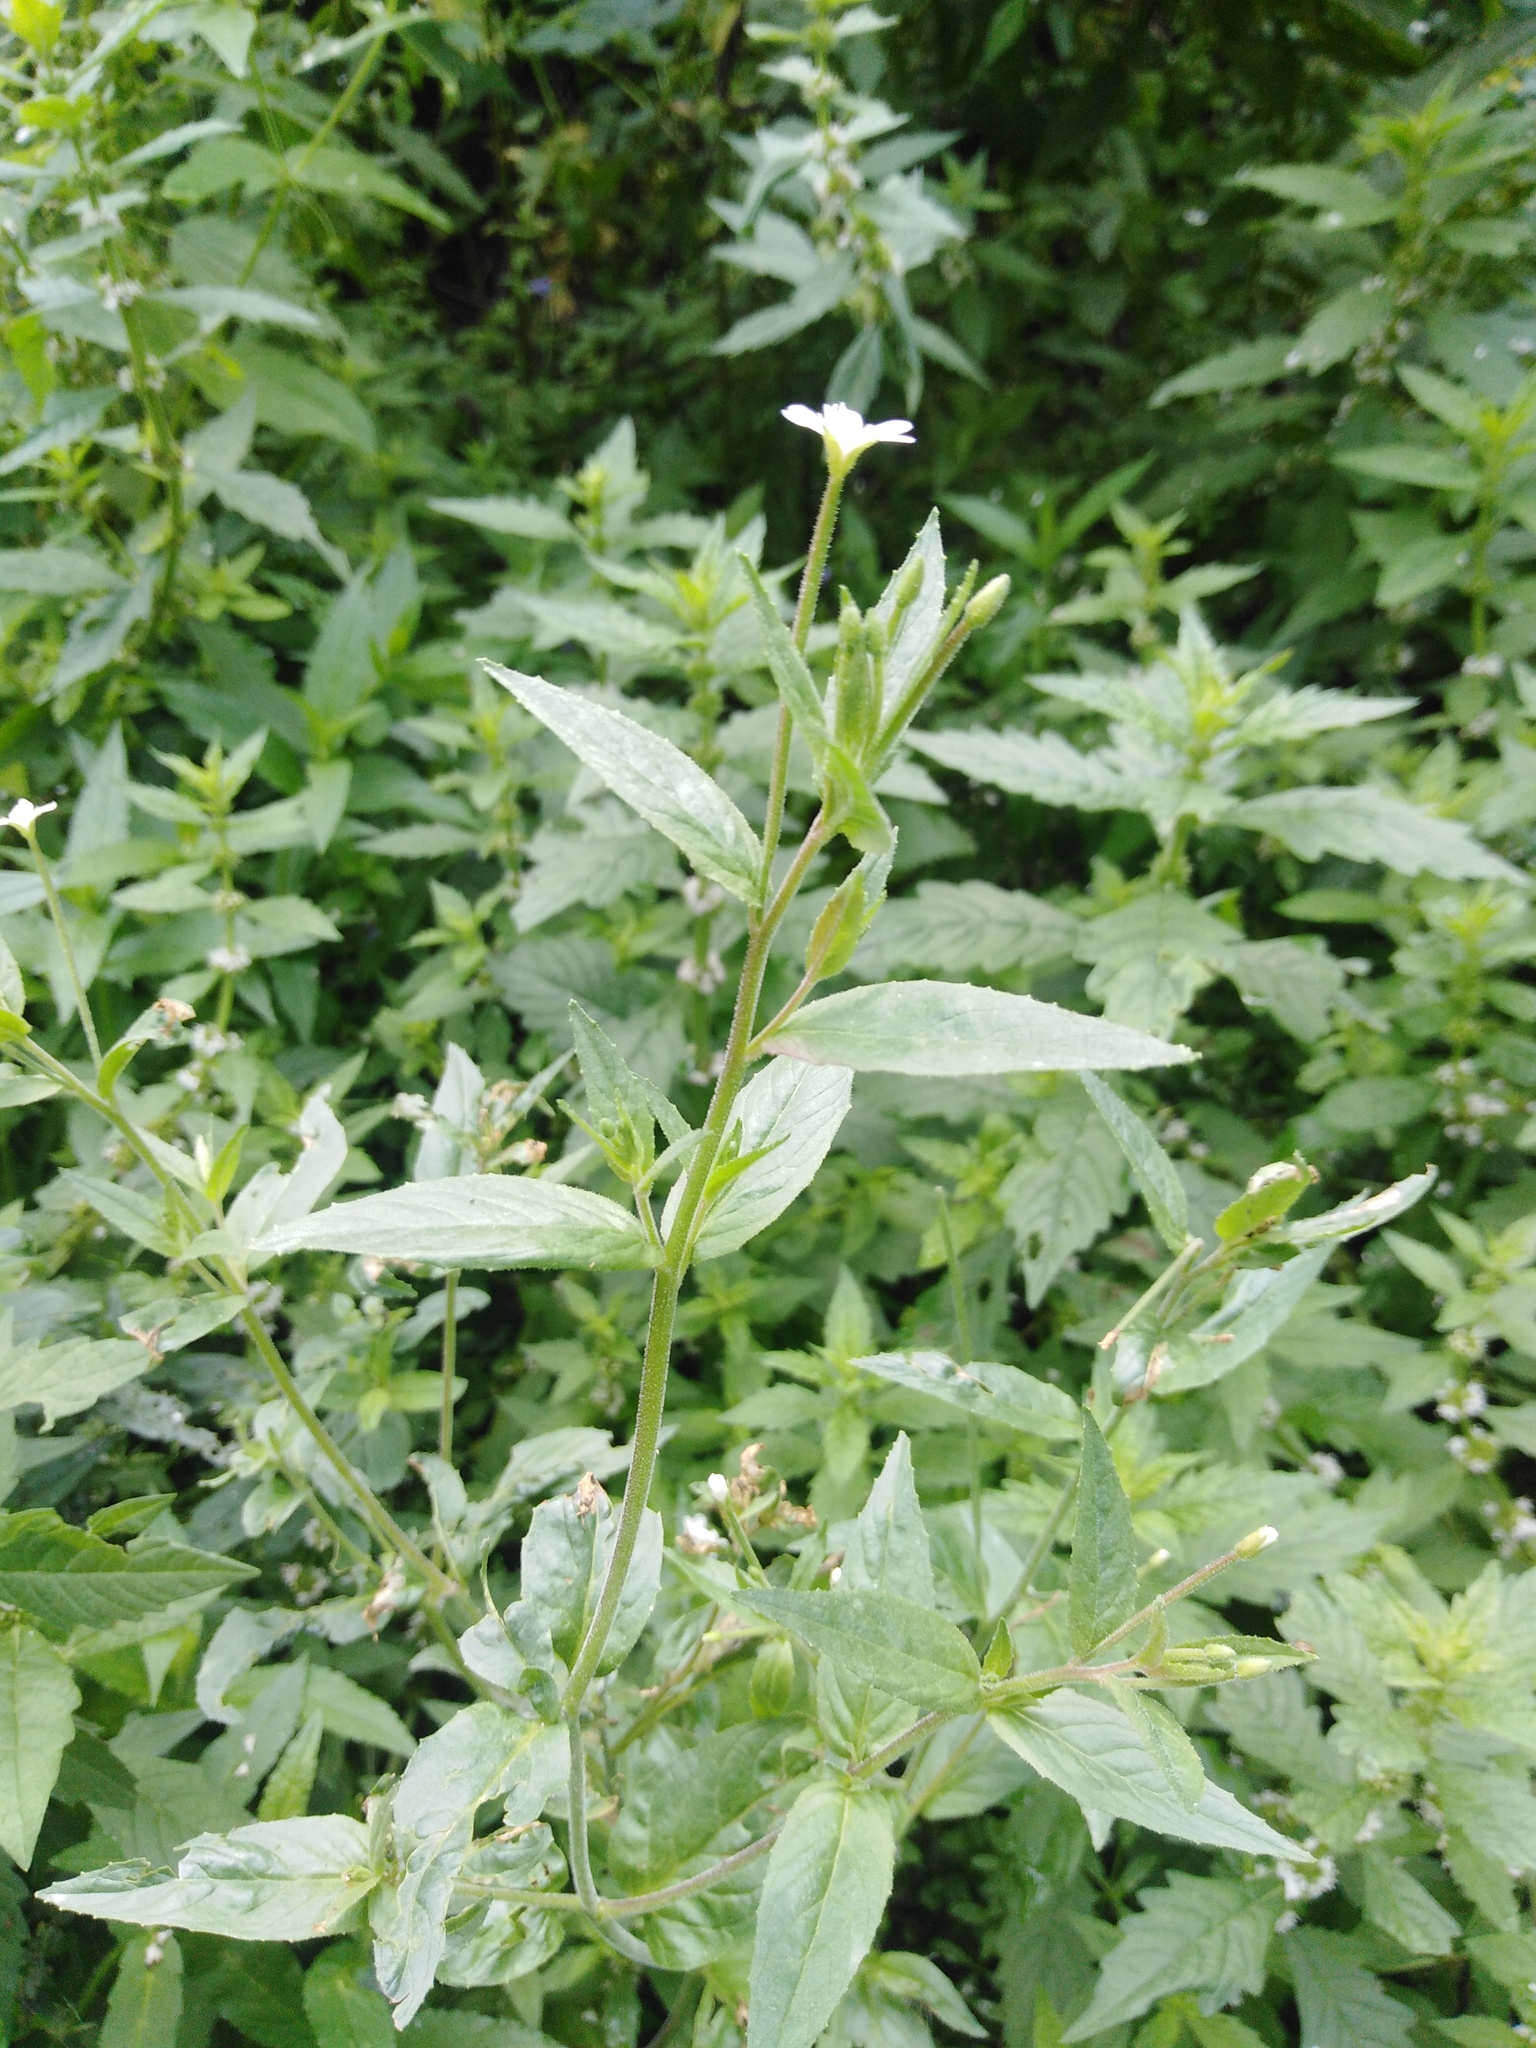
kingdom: Plantae
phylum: Tracheophyta
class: Magnoliopsida
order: Myrtales
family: Onagraceae
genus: Epilobium
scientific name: Epilobium pseudorubescens
